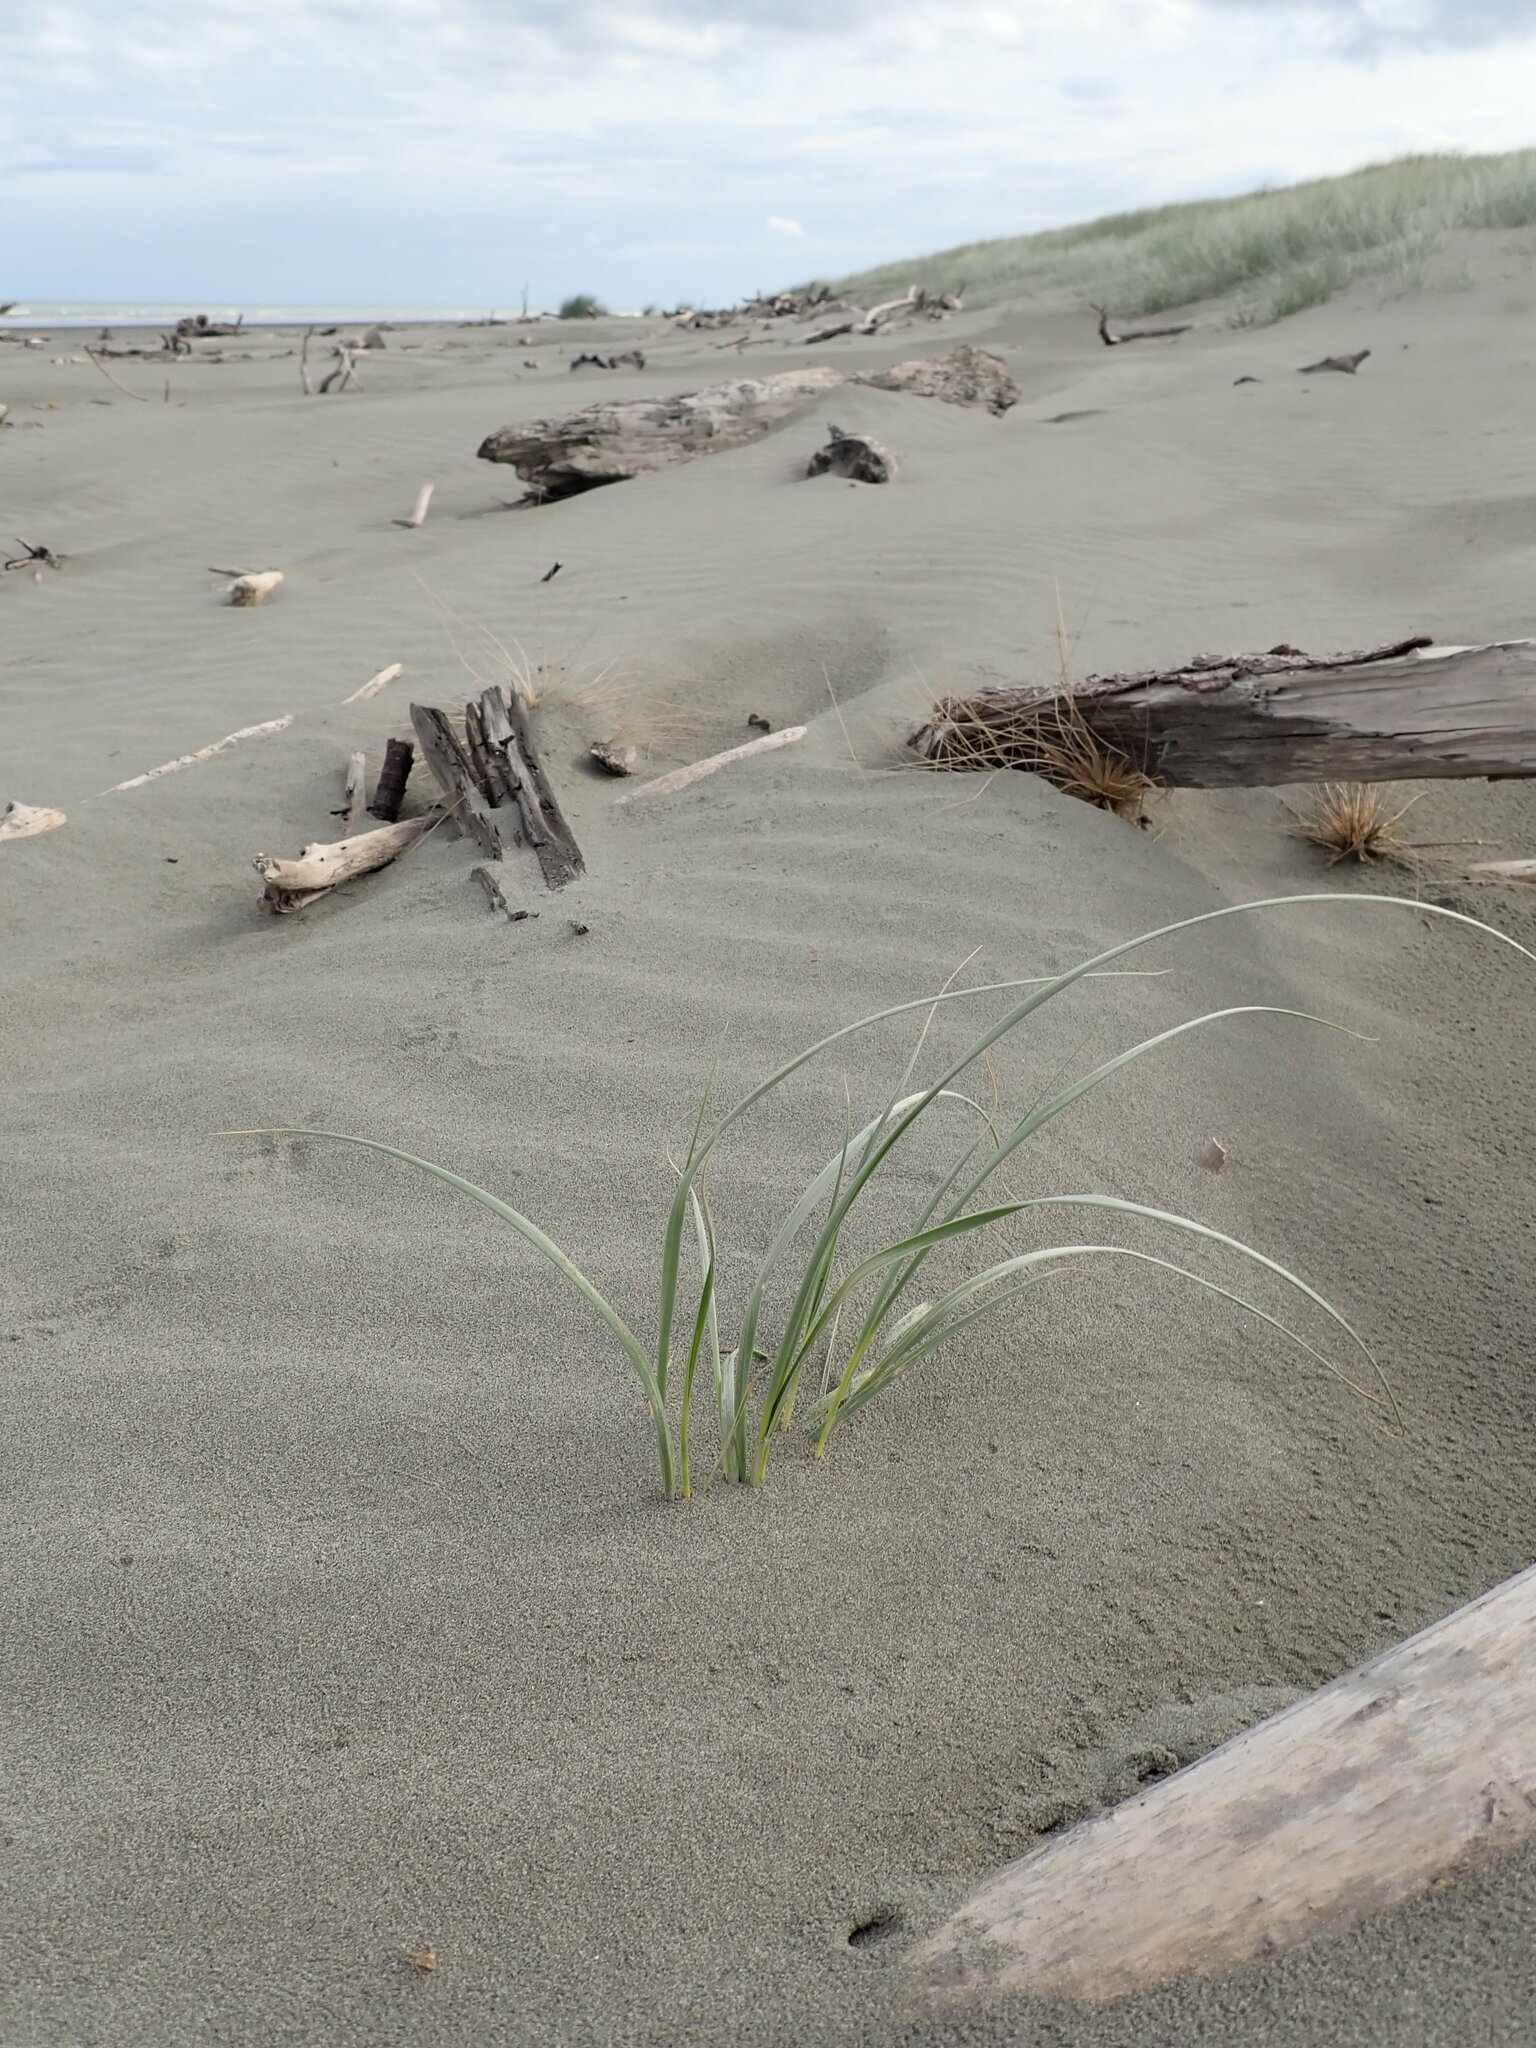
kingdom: Plantae
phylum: Tracheophyta
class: Liliopsida
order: Poales
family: Poaceae
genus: Spinifex
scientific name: Spinifex sericeus
